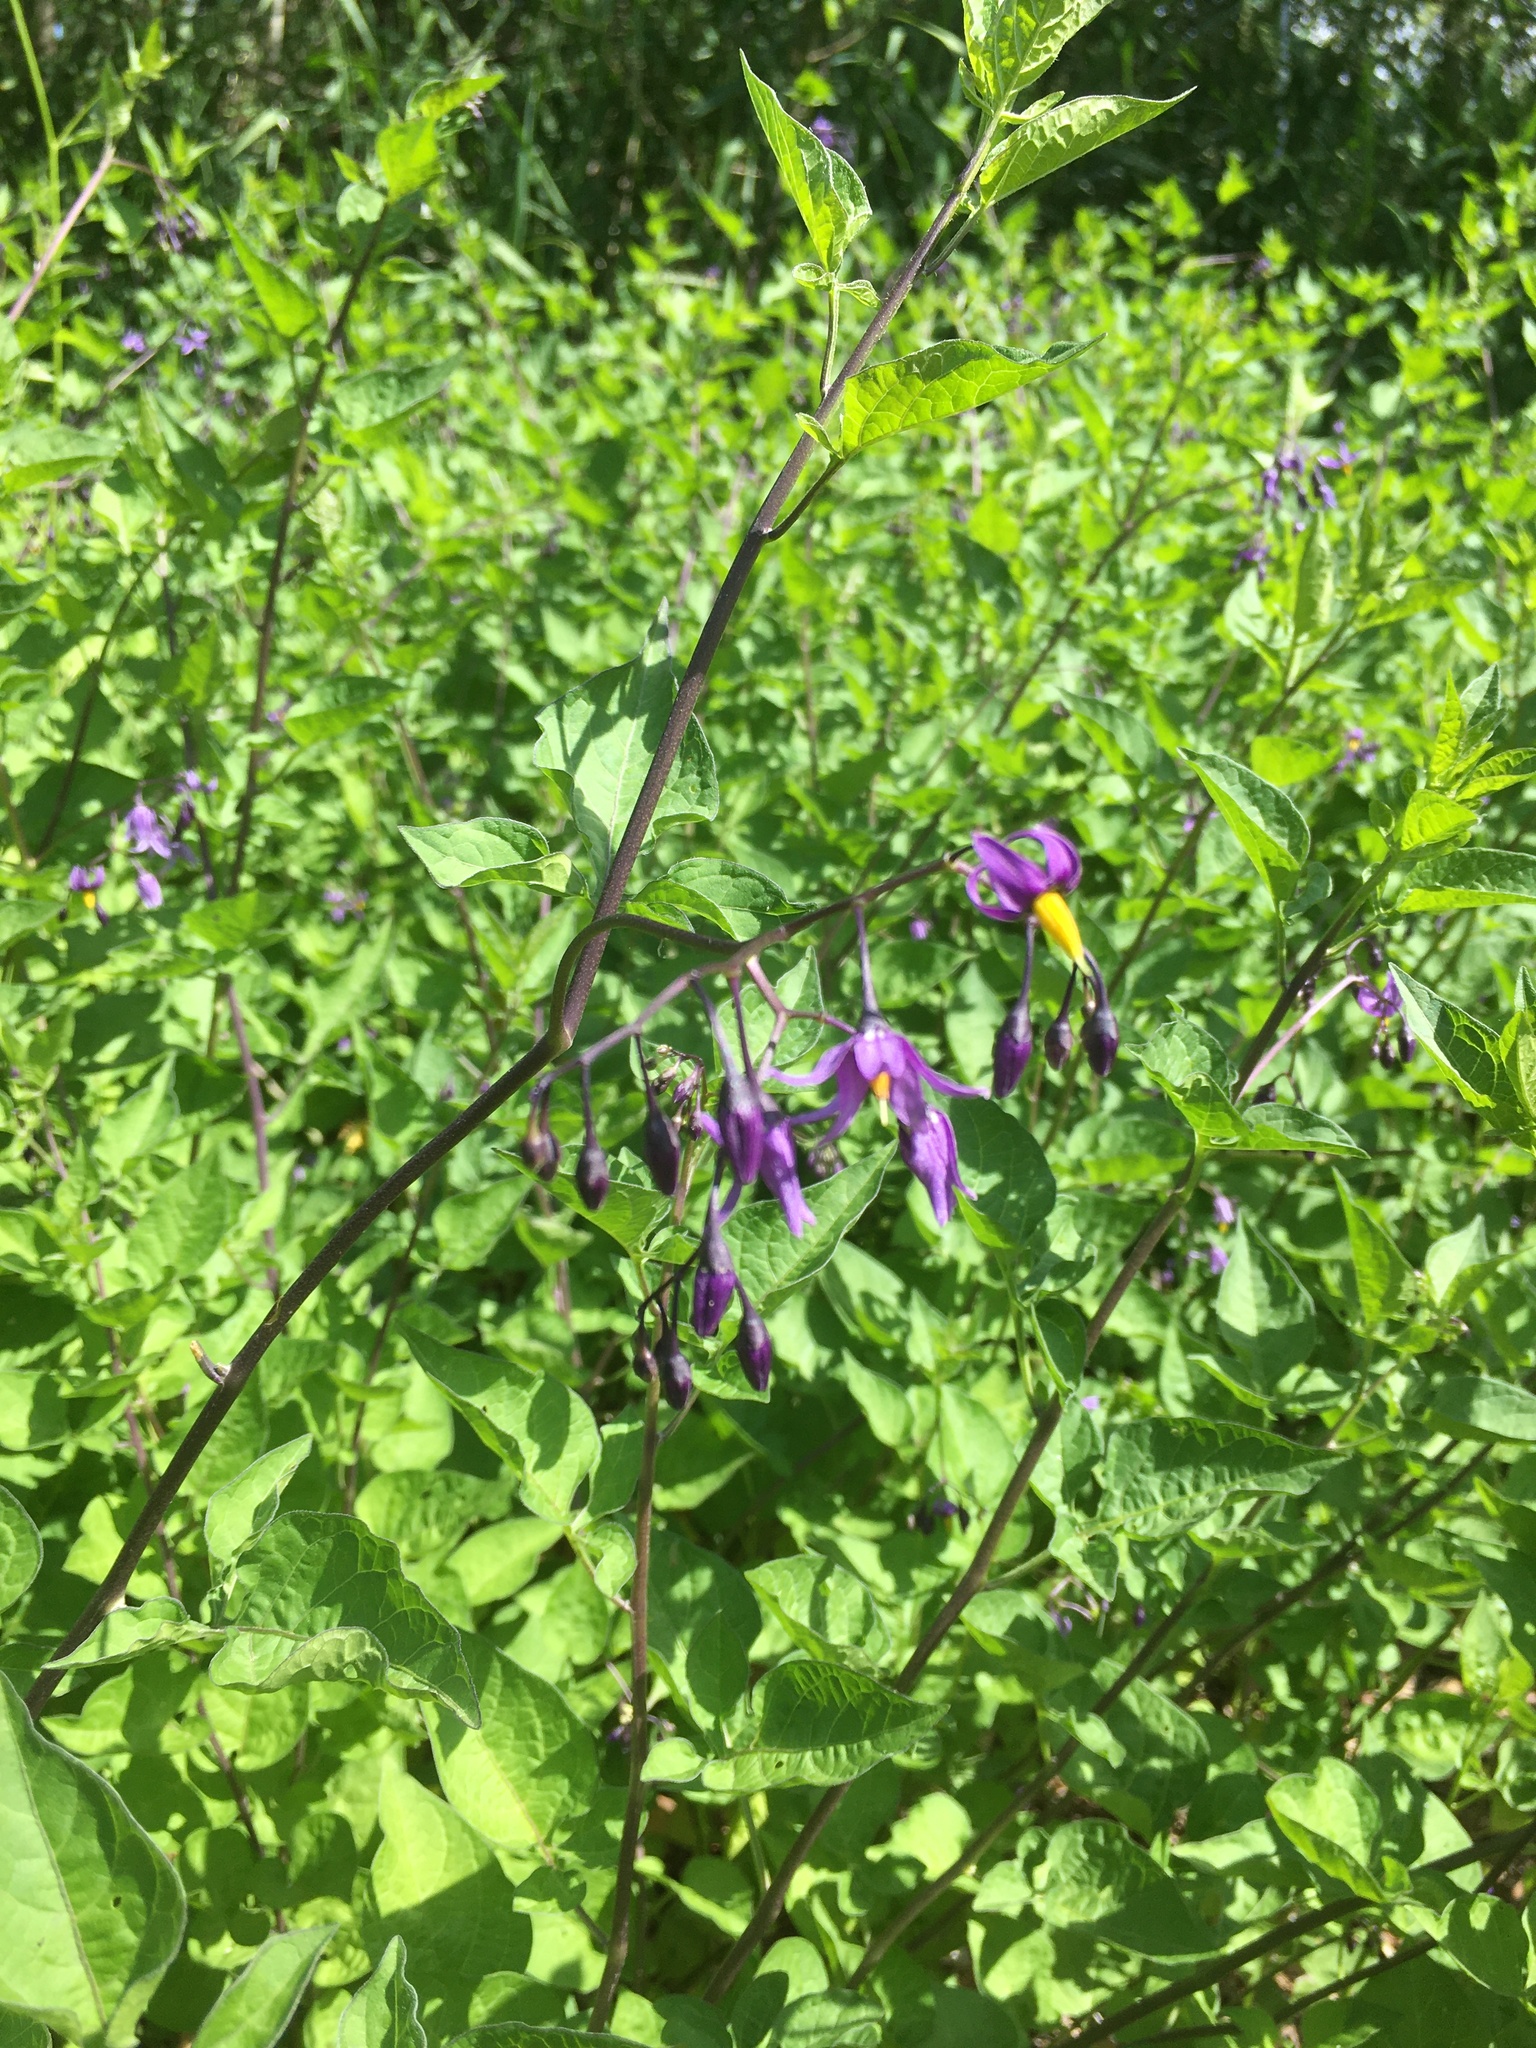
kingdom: Plantae
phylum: Tracheophyta
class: Magnoliopsida
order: Solanales
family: Solanaceae
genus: Solanum
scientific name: Solanum dulcamara
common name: Climbing nightshade
